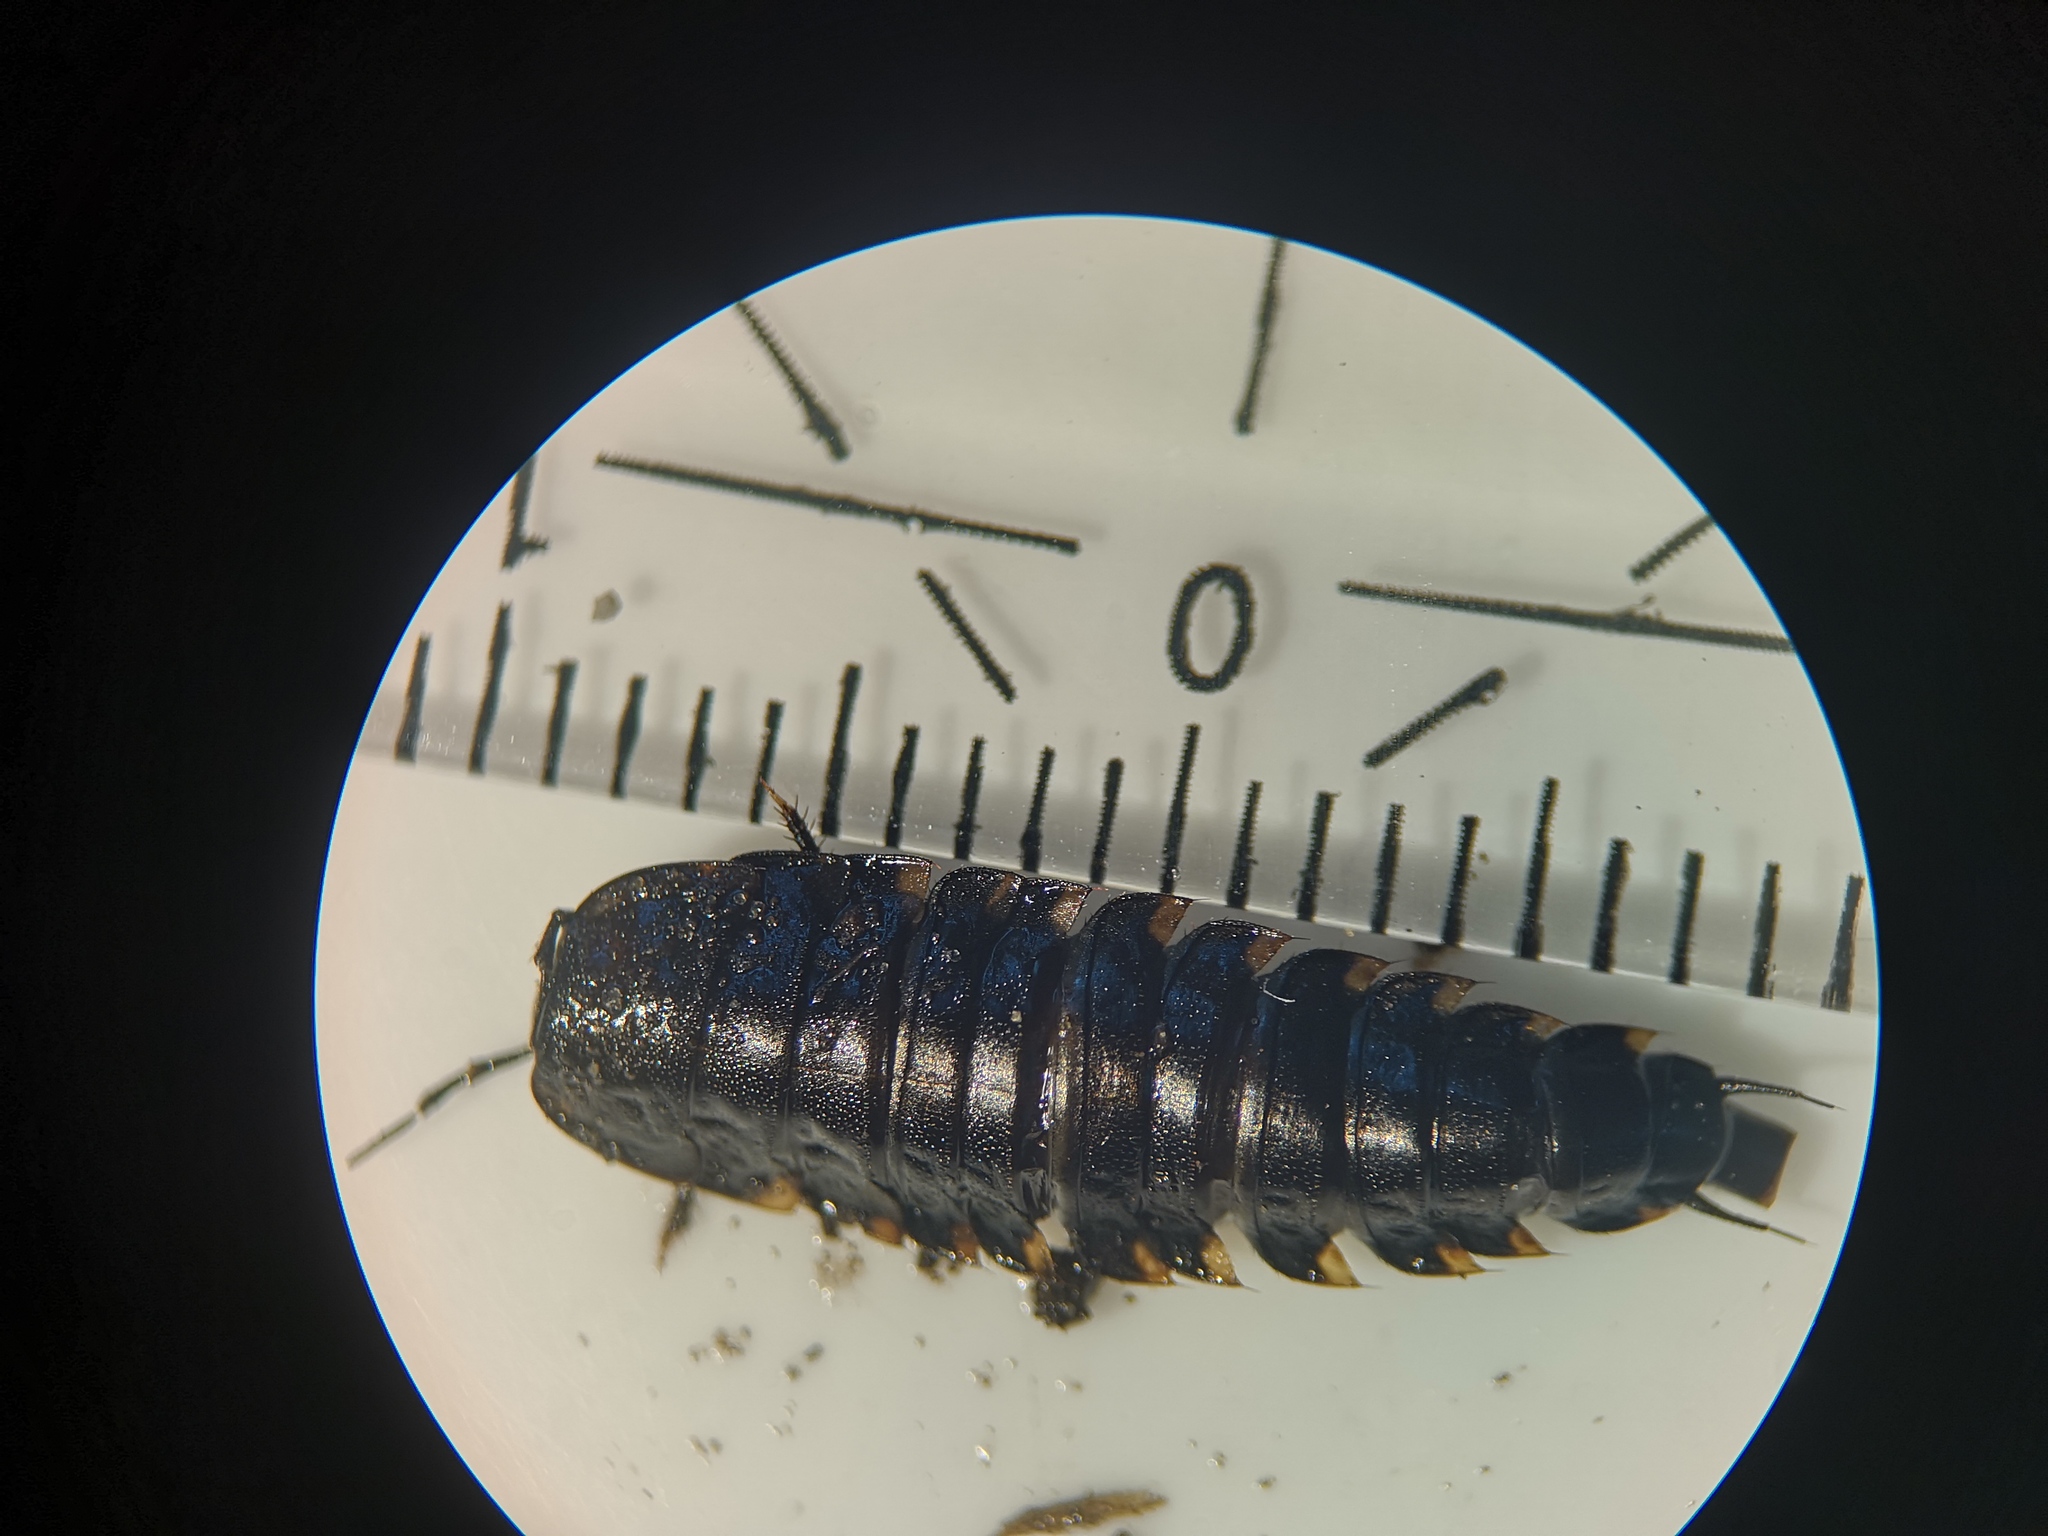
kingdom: Animalia
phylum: Arthropoda
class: Insecta
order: Coleoptera
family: Staphylinidae
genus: Silpha
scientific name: Silpha tristis
